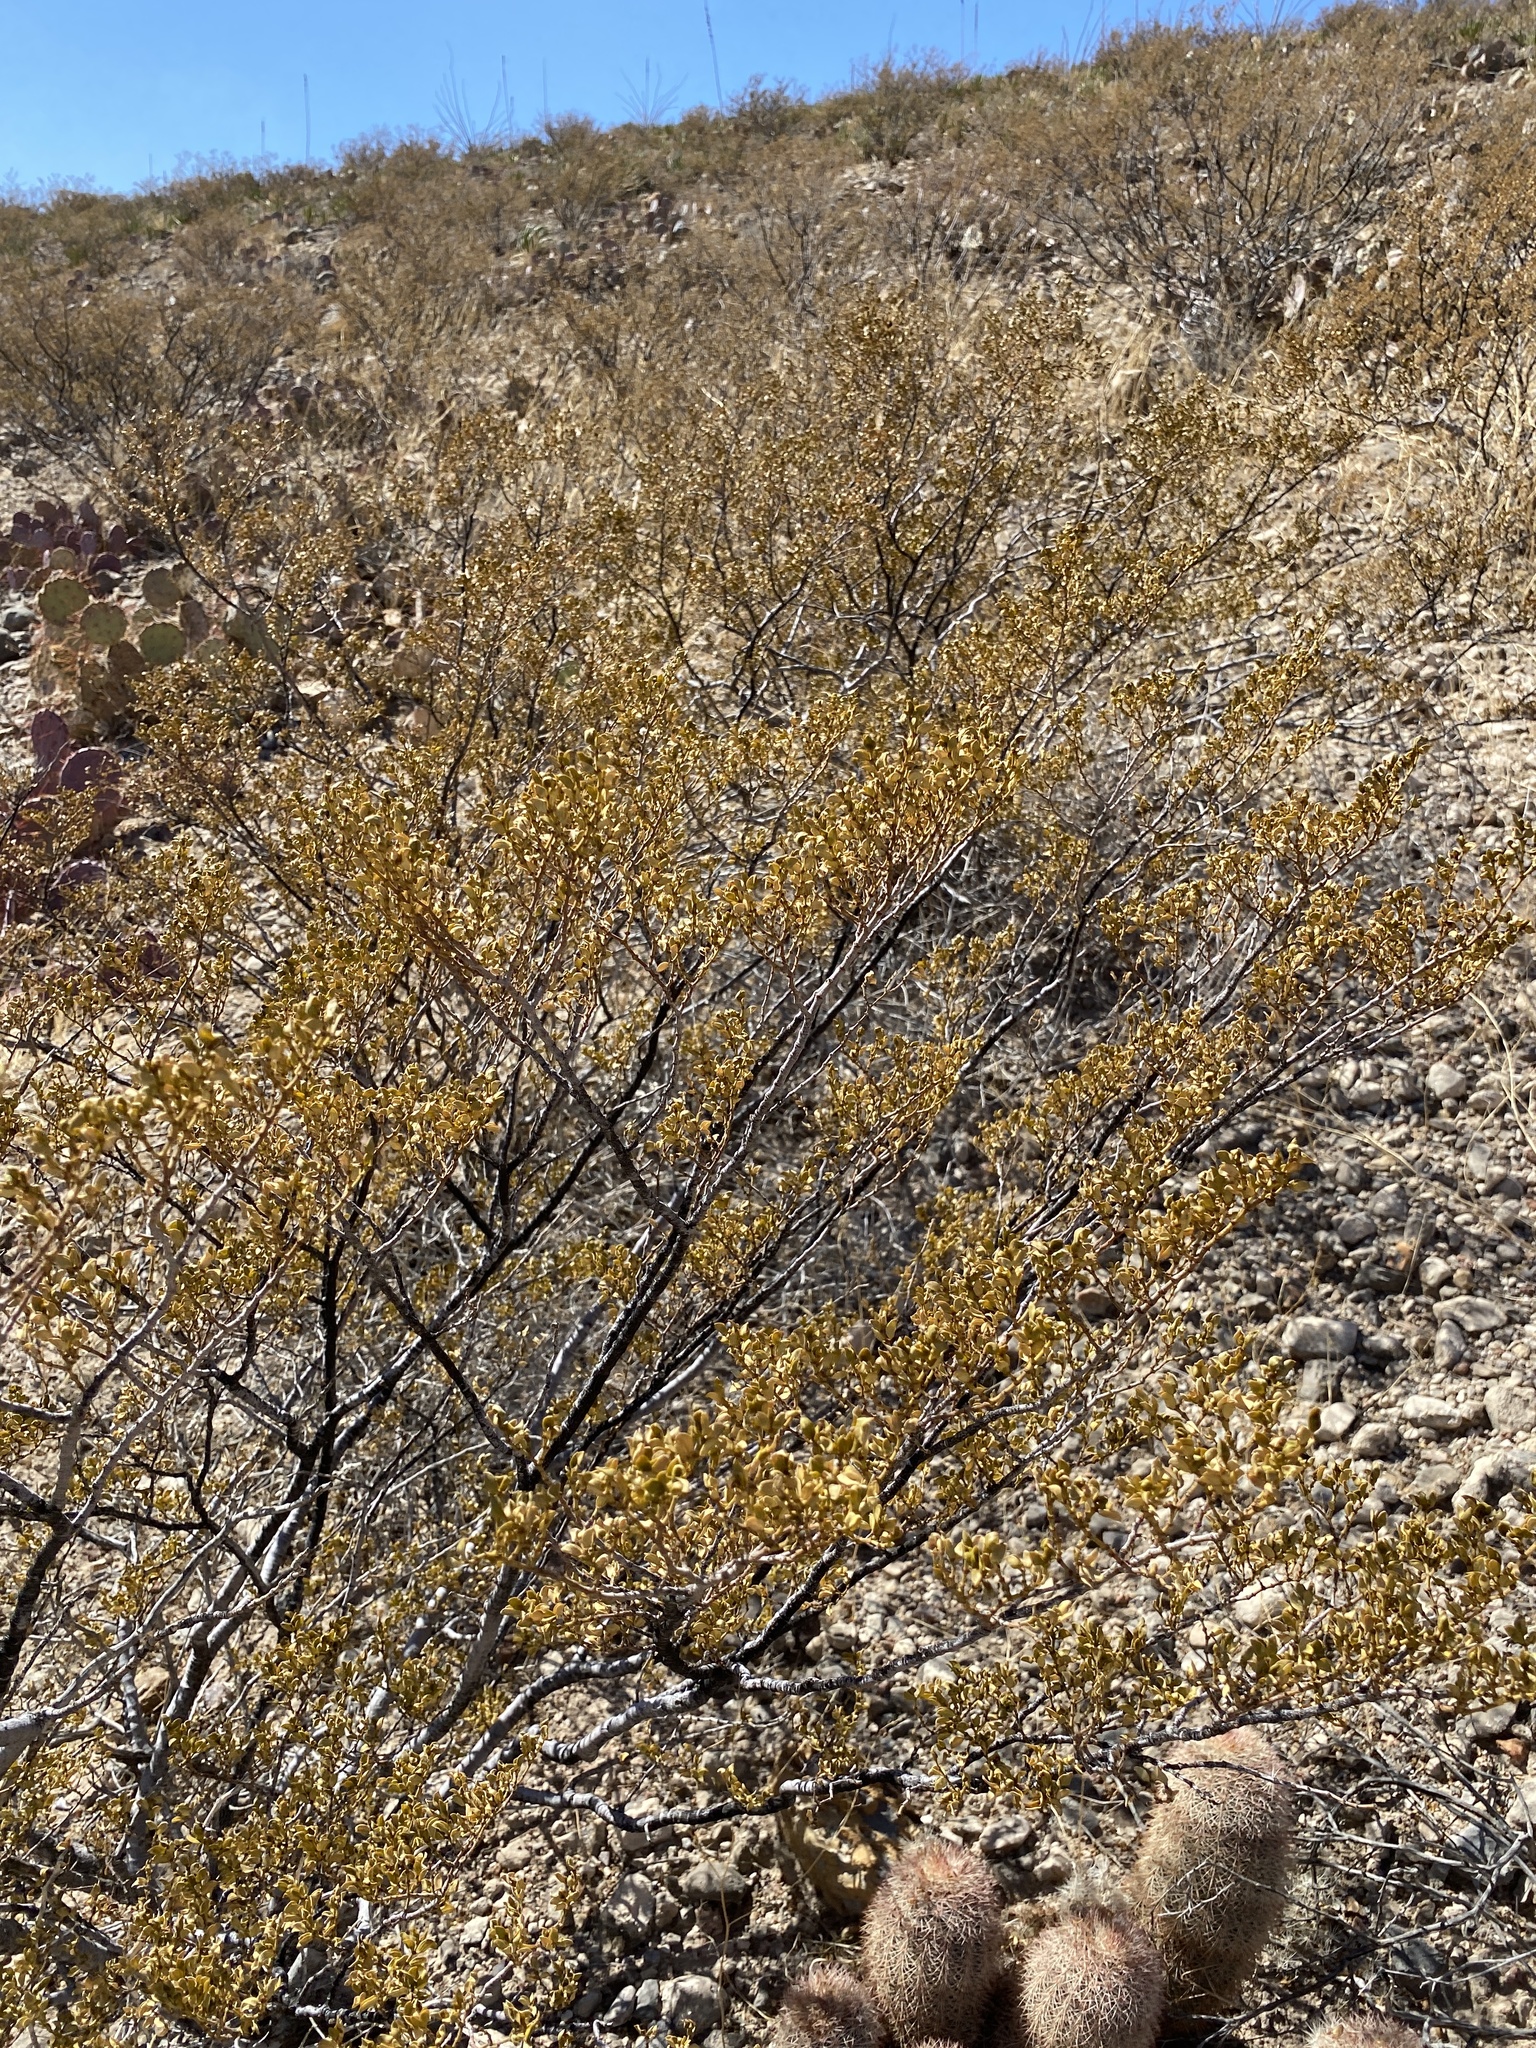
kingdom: Plantae
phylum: Tracheophyta
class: Magnoliopsida
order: Zygophyllales
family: Zygophyllaceae
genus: Larrea
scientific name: Larrea tridentata
